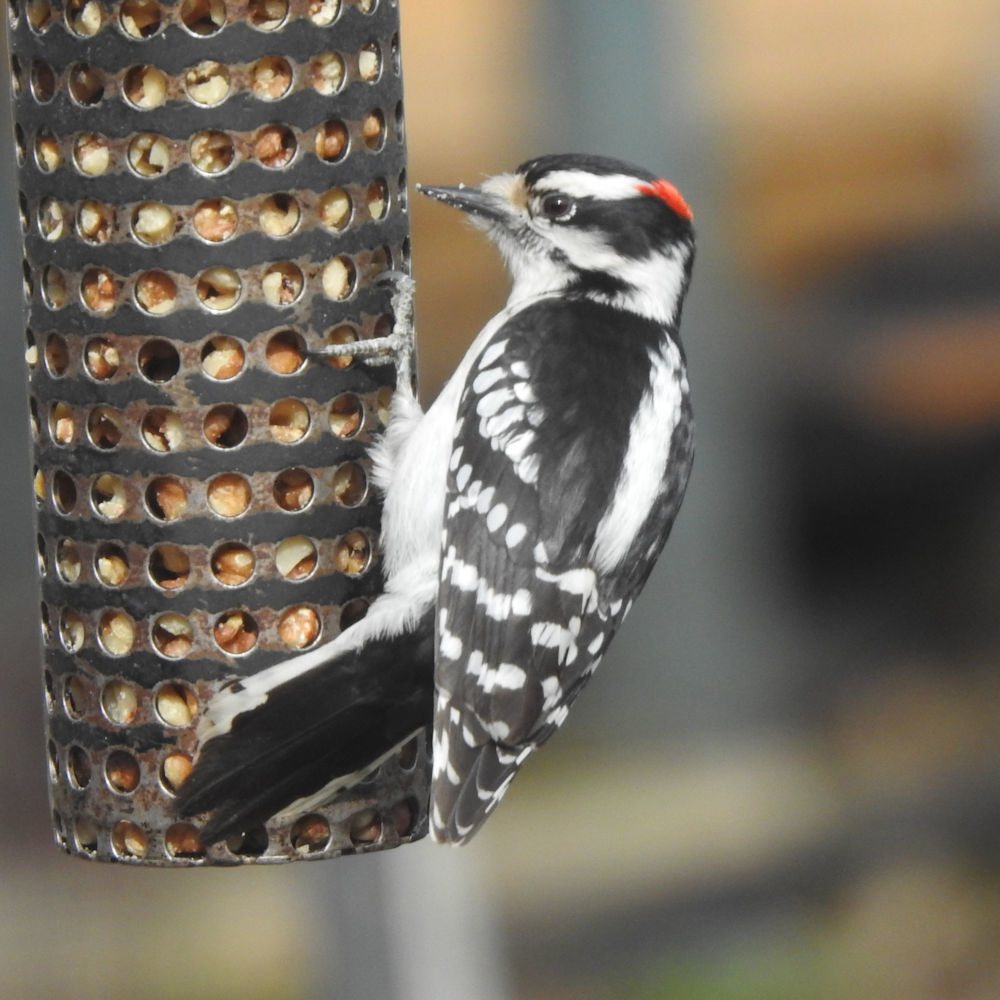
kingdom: Animalia
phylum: Chordata
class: Aves
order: Piciformes
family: Picidae
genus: Dryobates
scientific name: Dryobates pubescens
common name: Downy woodpecker
